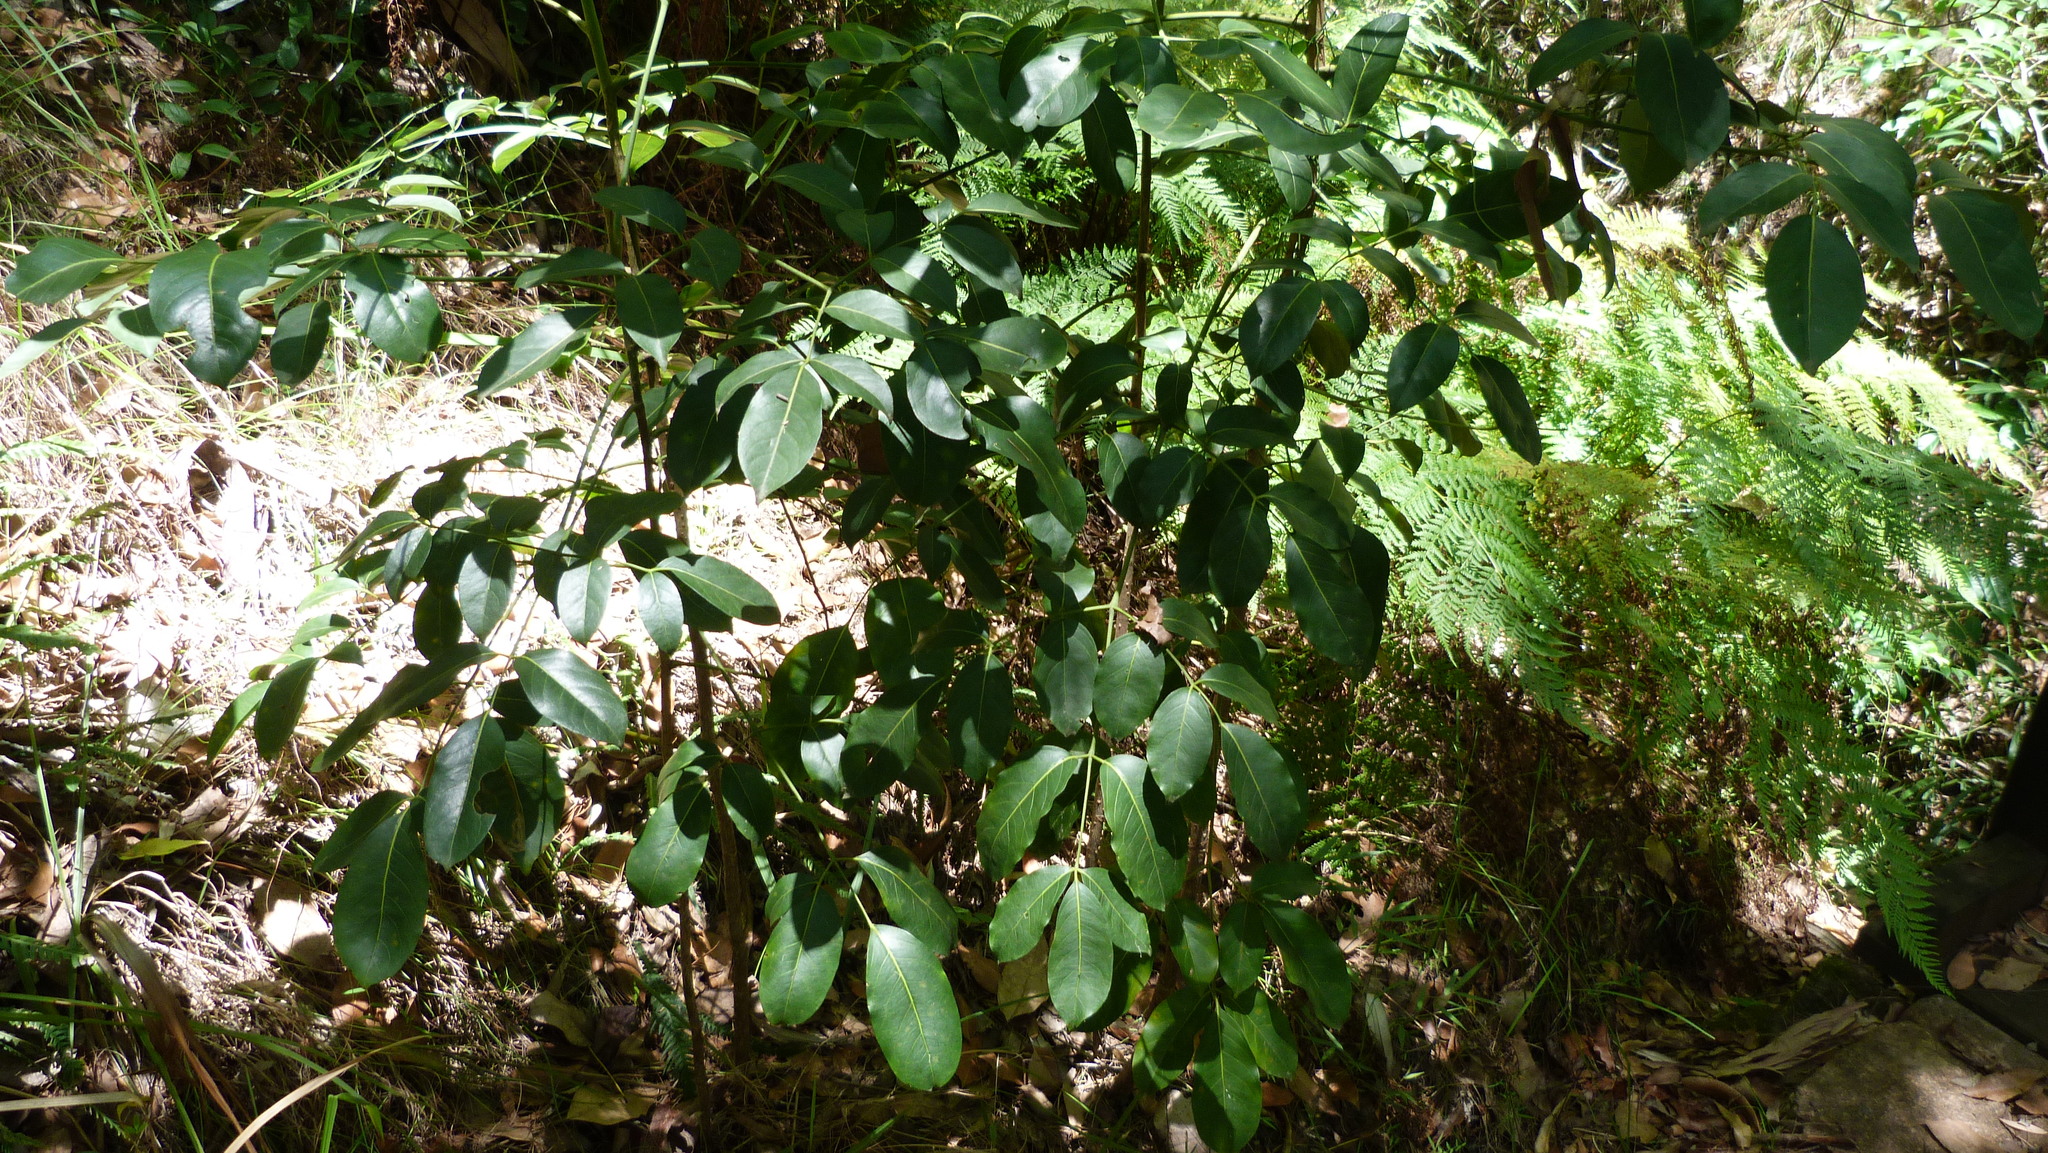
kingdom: Plantae
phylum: Tracheophyta
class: Magnoliopsida
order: Apiales
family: Araliaceae
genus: Polyscias
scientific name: Polyscias elegans
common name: Mowbulan whitewood
